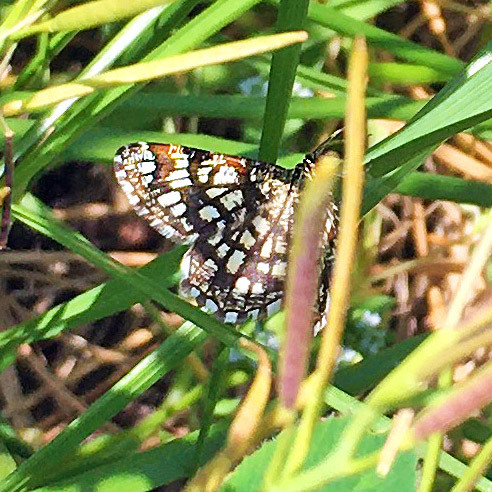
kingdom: Animalia
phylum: Arthropoda
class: Insecta
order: Lepidoptera
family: Geometridae
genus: Chiasmia
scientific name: Chiasmia clathrata
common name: Latticed heath
